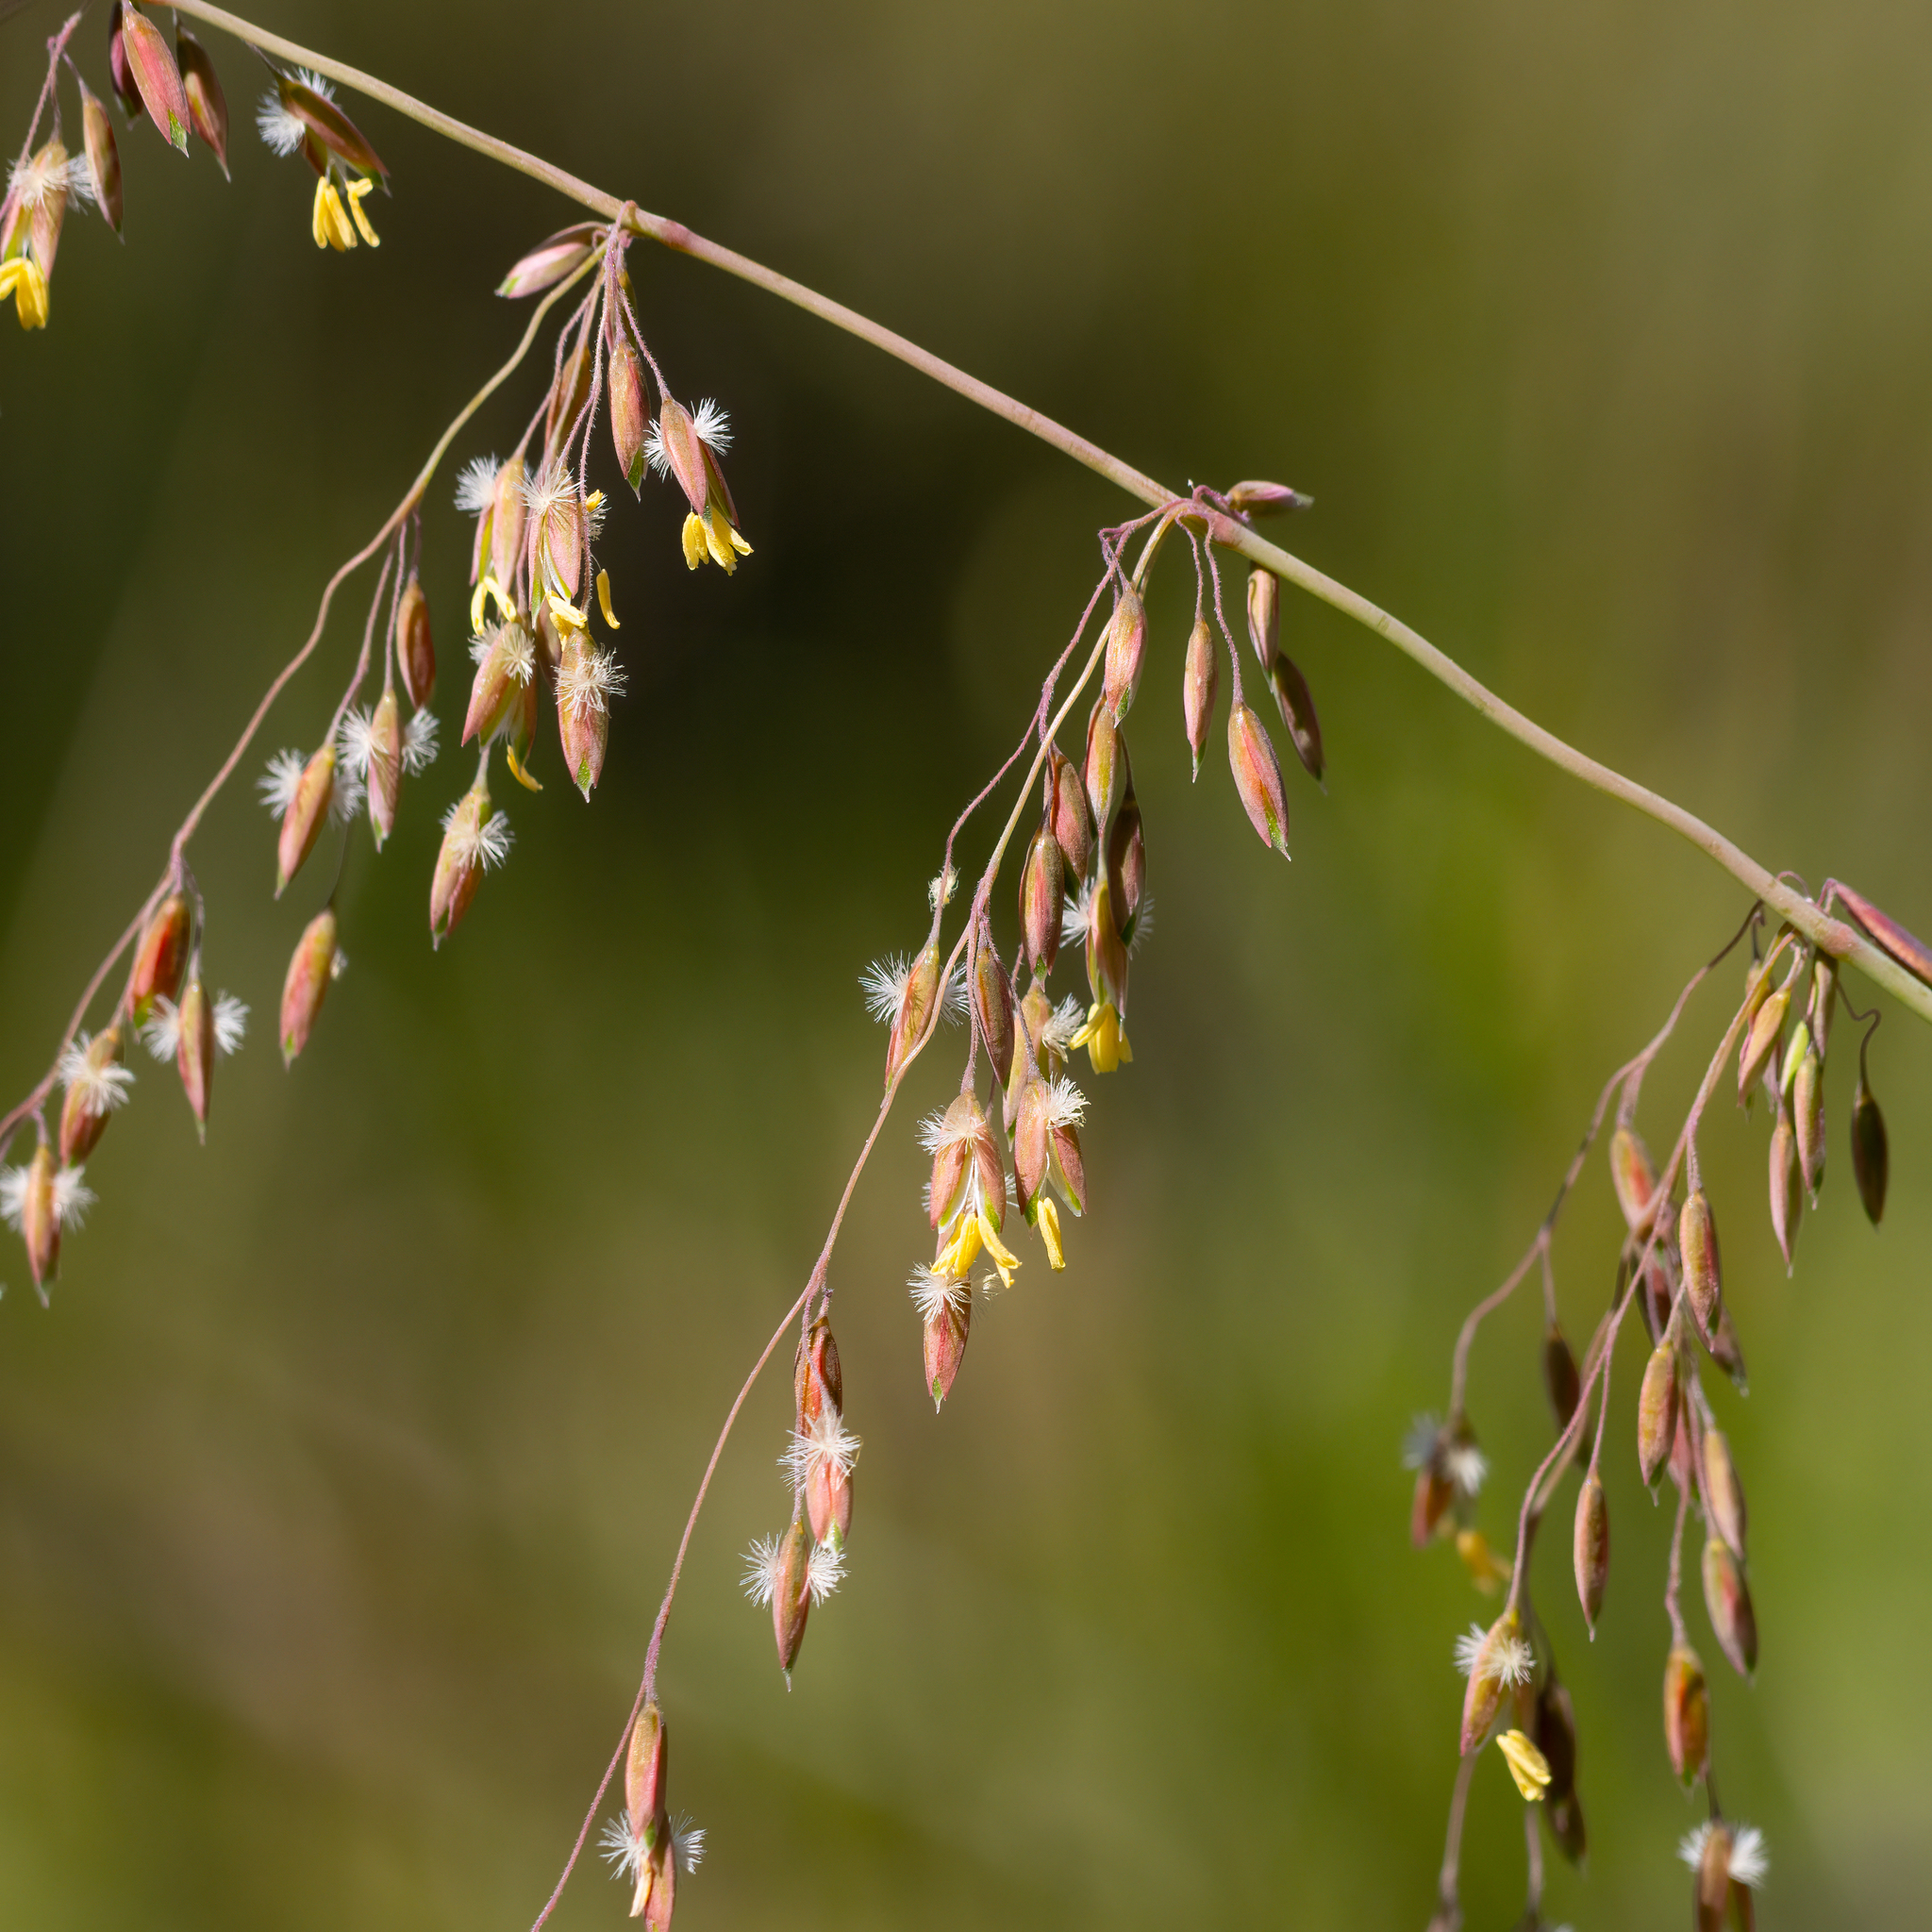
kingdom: Plantae
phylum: Tracheophyta
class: Liliopsida
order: Poales
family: Poaceae
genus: Ehrharta
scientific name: Ehrharta calycina
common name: Perennial veldtgrass
